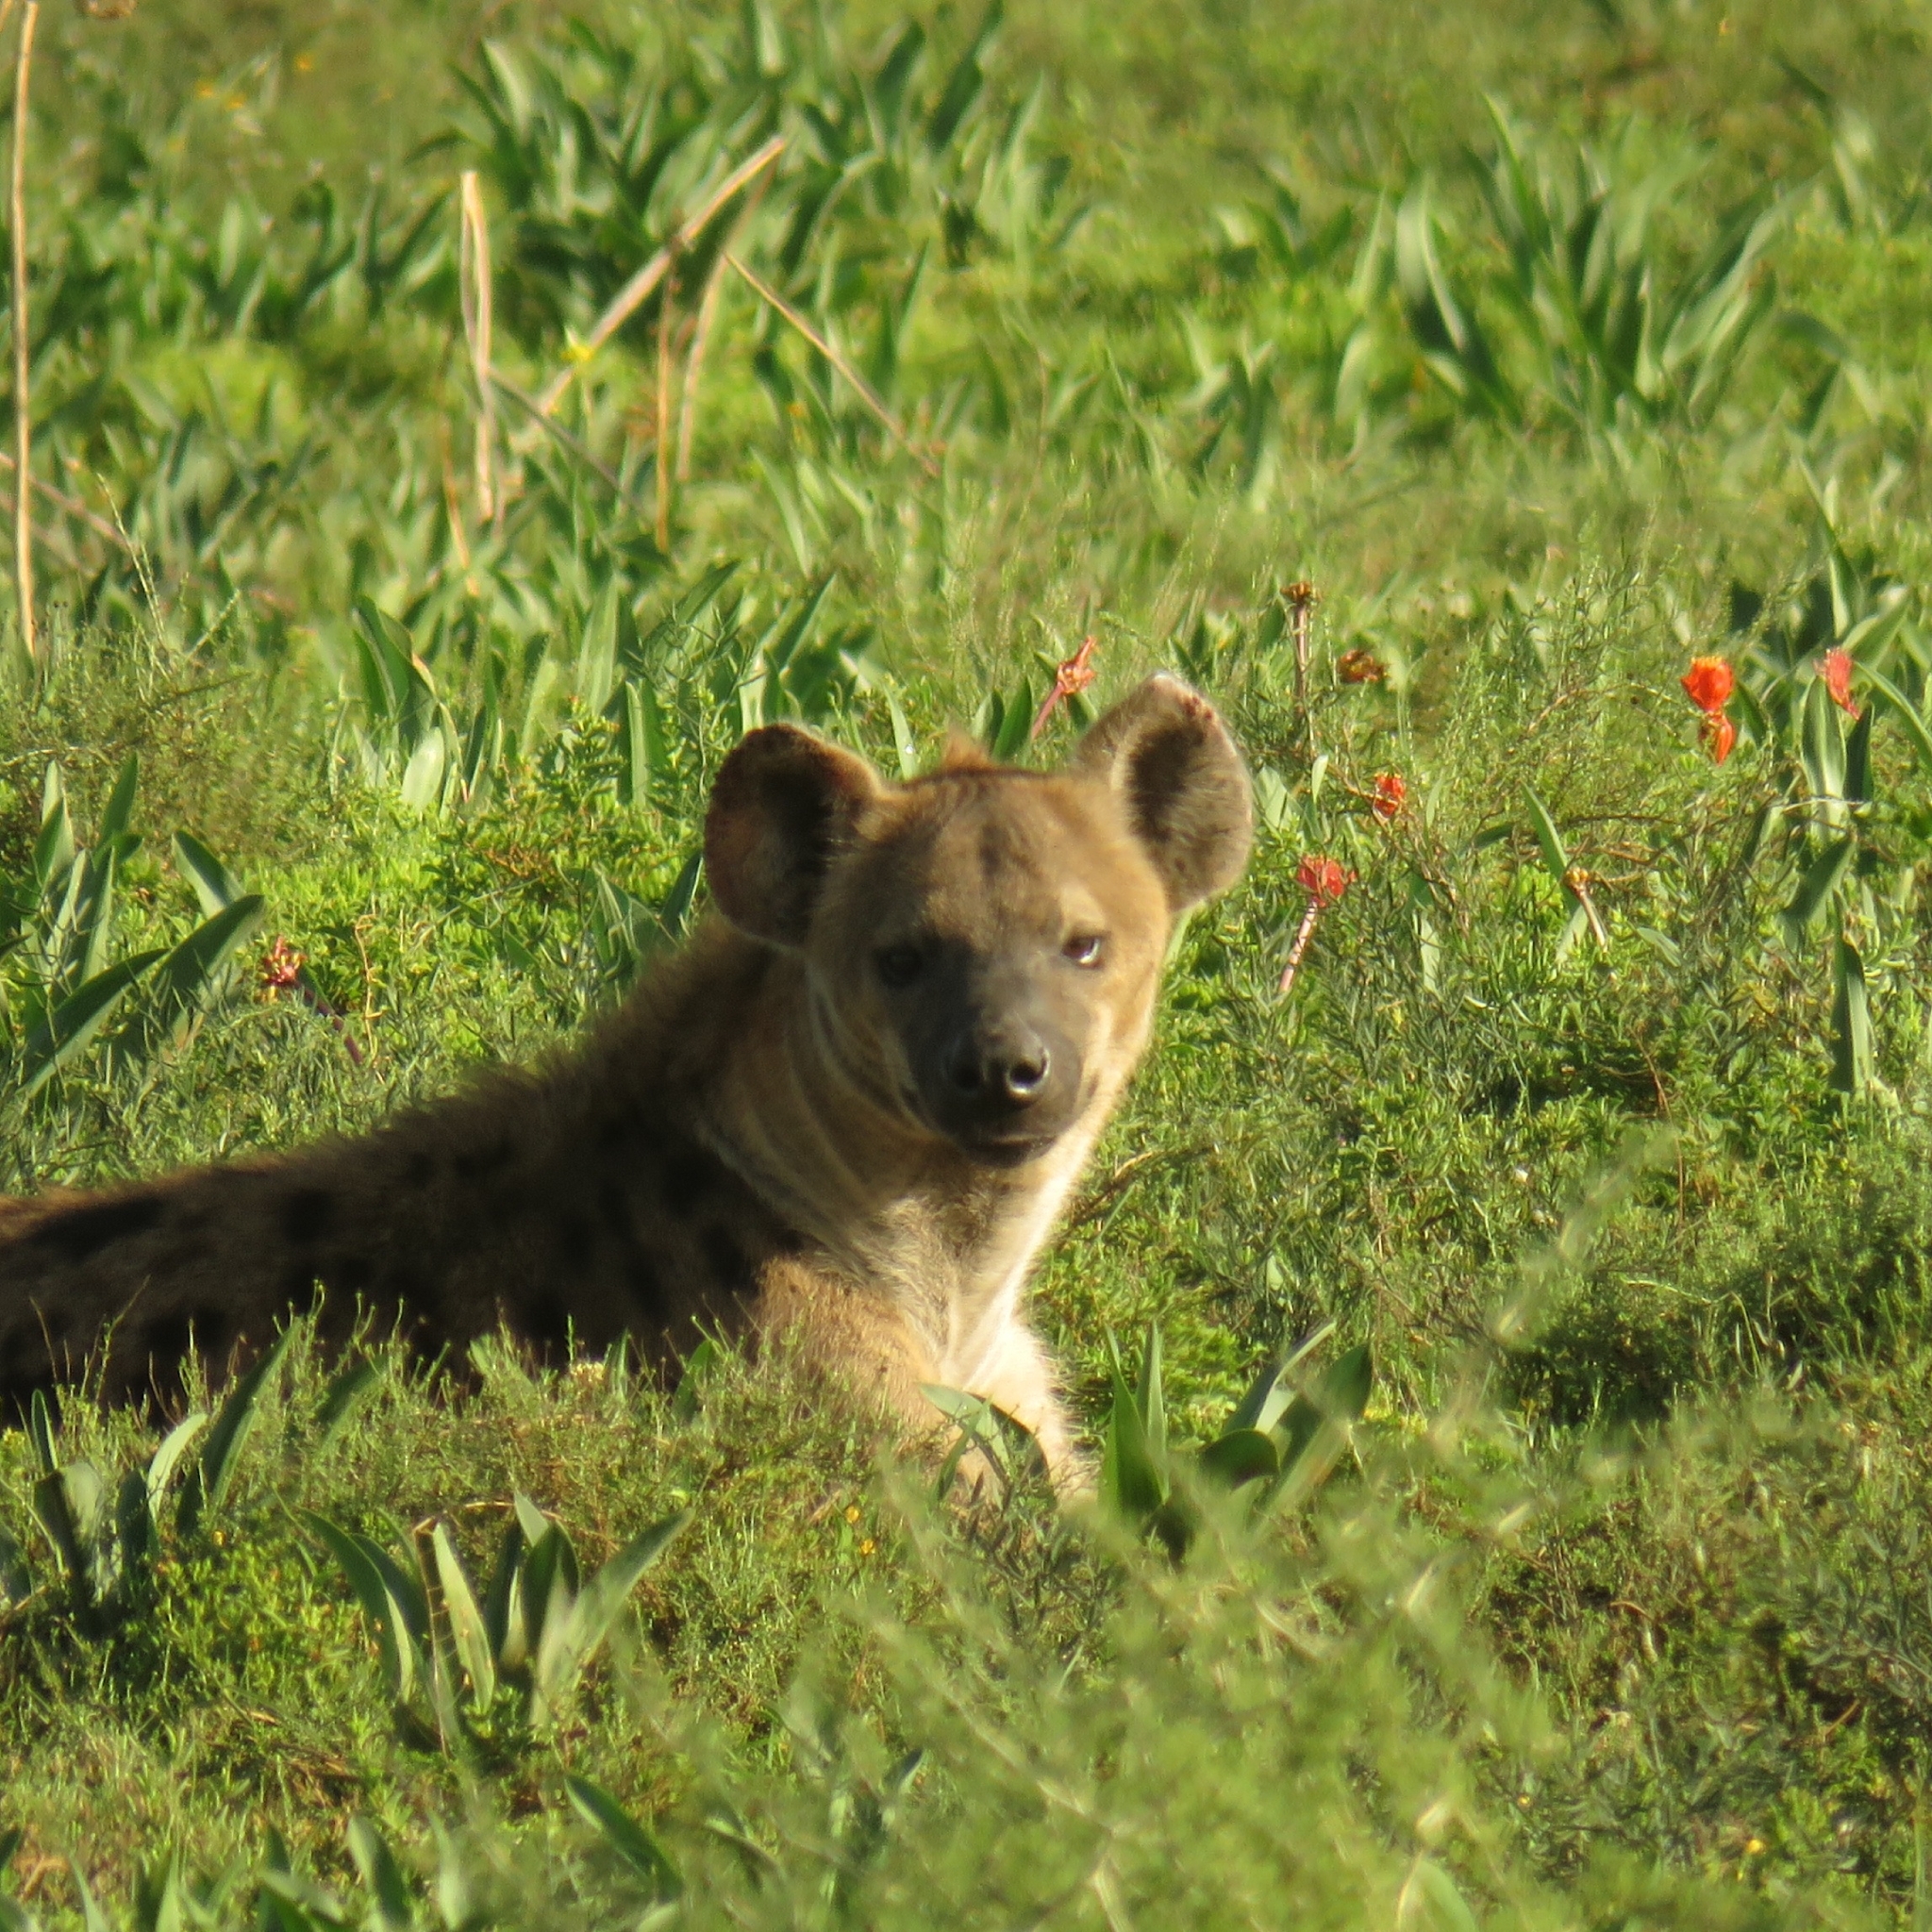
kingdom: Animalia
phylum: Chordata
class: Mammalia
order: Carnivora
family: Hyaenidae
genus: Crocuta
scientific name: Crocuta crocuta
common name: Spotted hyaena
